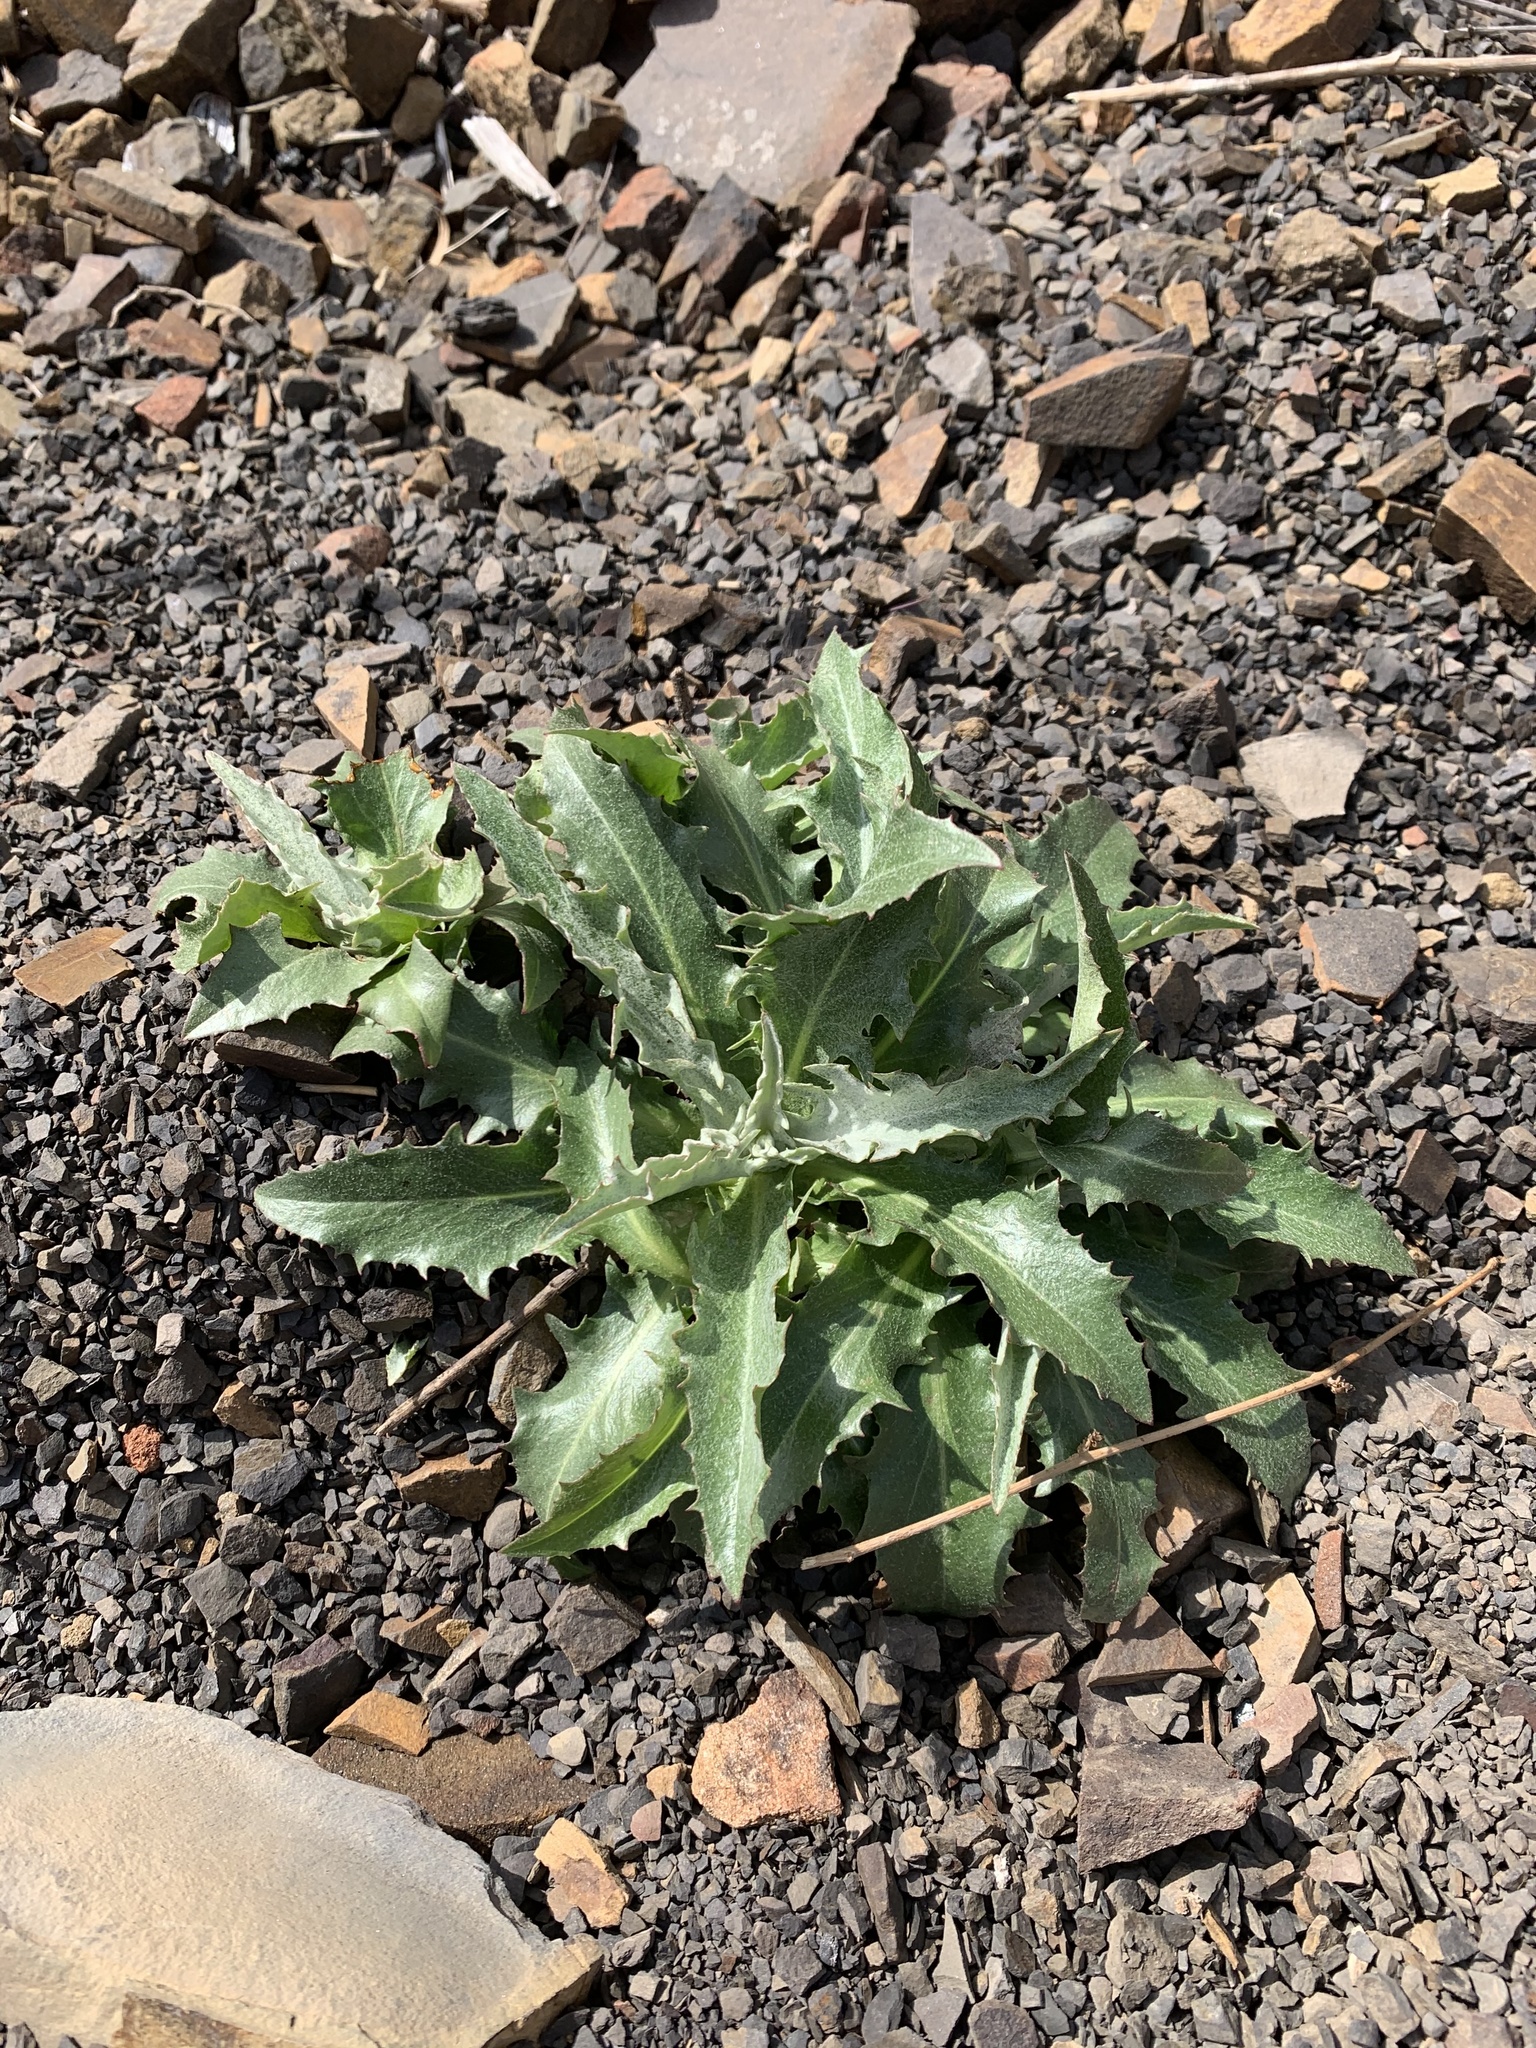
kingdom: Plantae
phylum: Tracheophyta
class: Magnoliopsida
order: Asterales
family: Asteraceae
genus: Stephanomeria
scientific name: Stephanomeria cichoriacea
